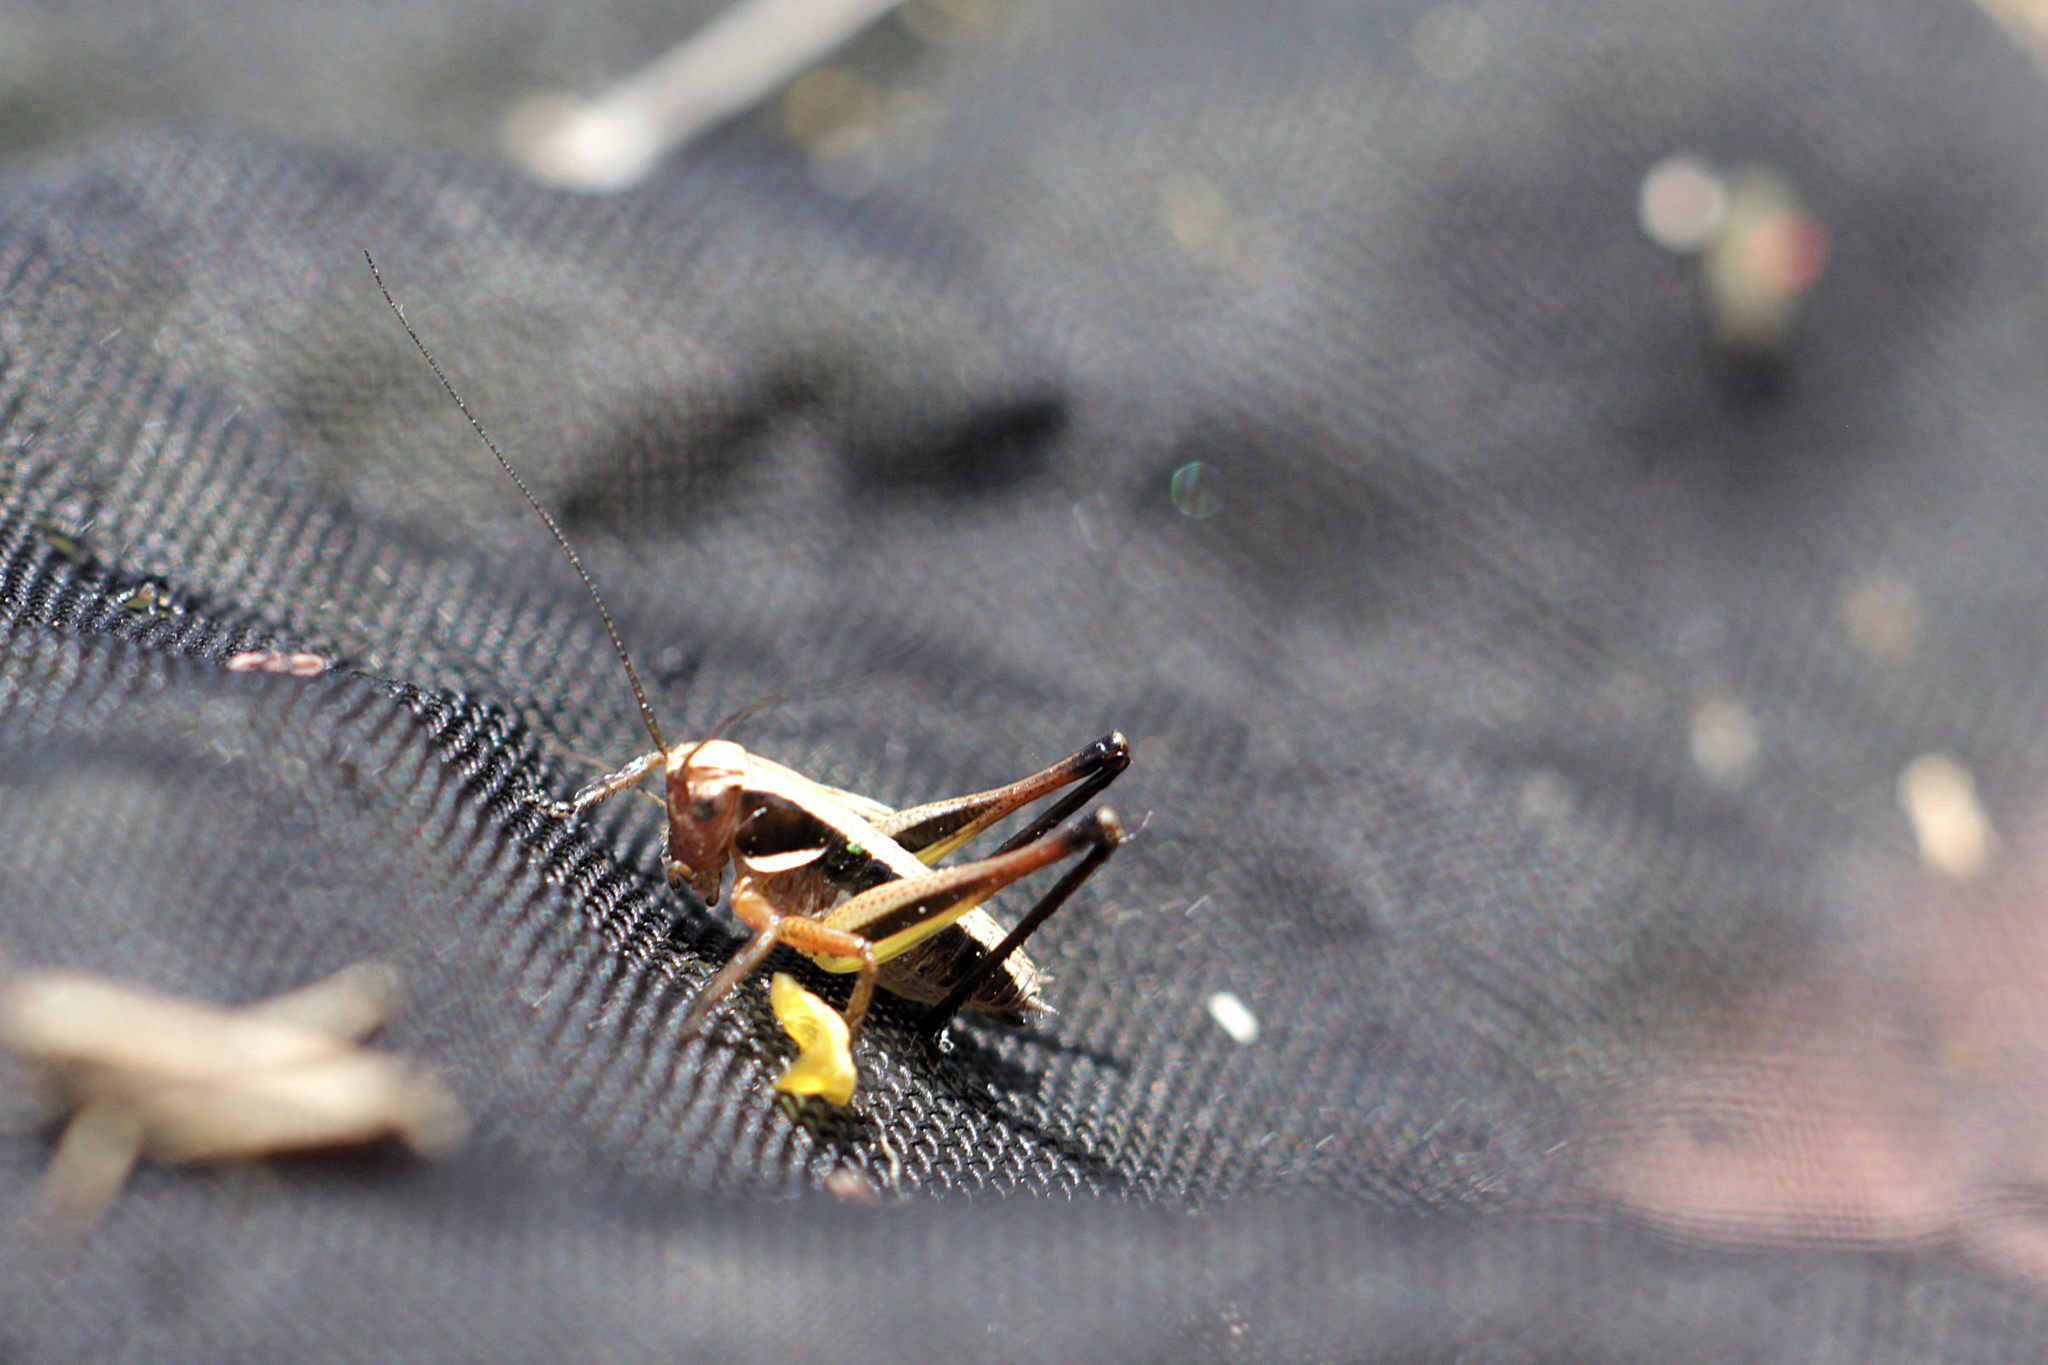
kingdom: Animalia
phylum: Arthropoda
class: Insecta
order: Orthoptera
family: Tettigoniidae
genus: Metrioptera
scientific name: Metrioptera brachyptera
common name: Bog bush-cricket
